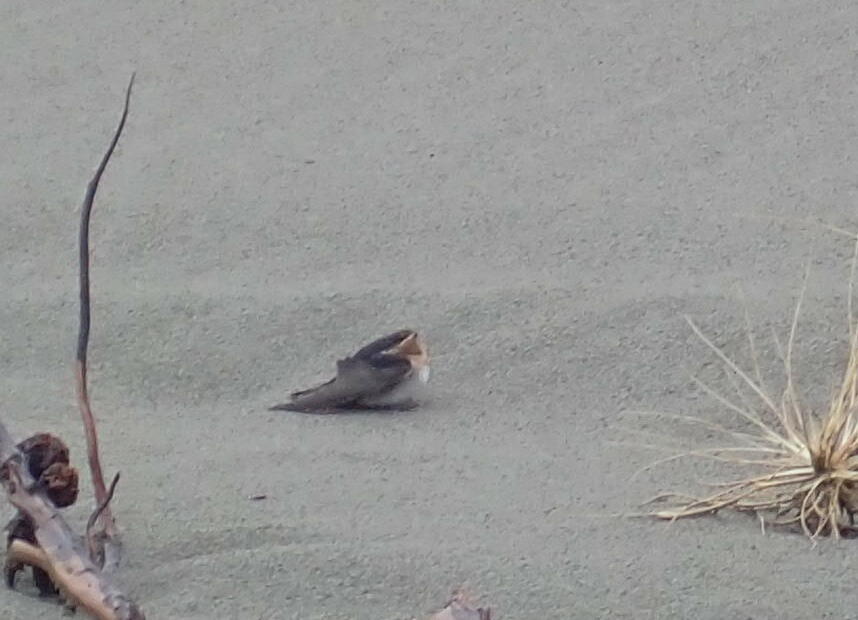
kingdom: Animalia
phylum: Chordata
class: Aves
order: Passeriformes
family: Hirundinidae
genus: Hirundo
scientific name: Hirundo neoxena
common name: Welcome swallow
